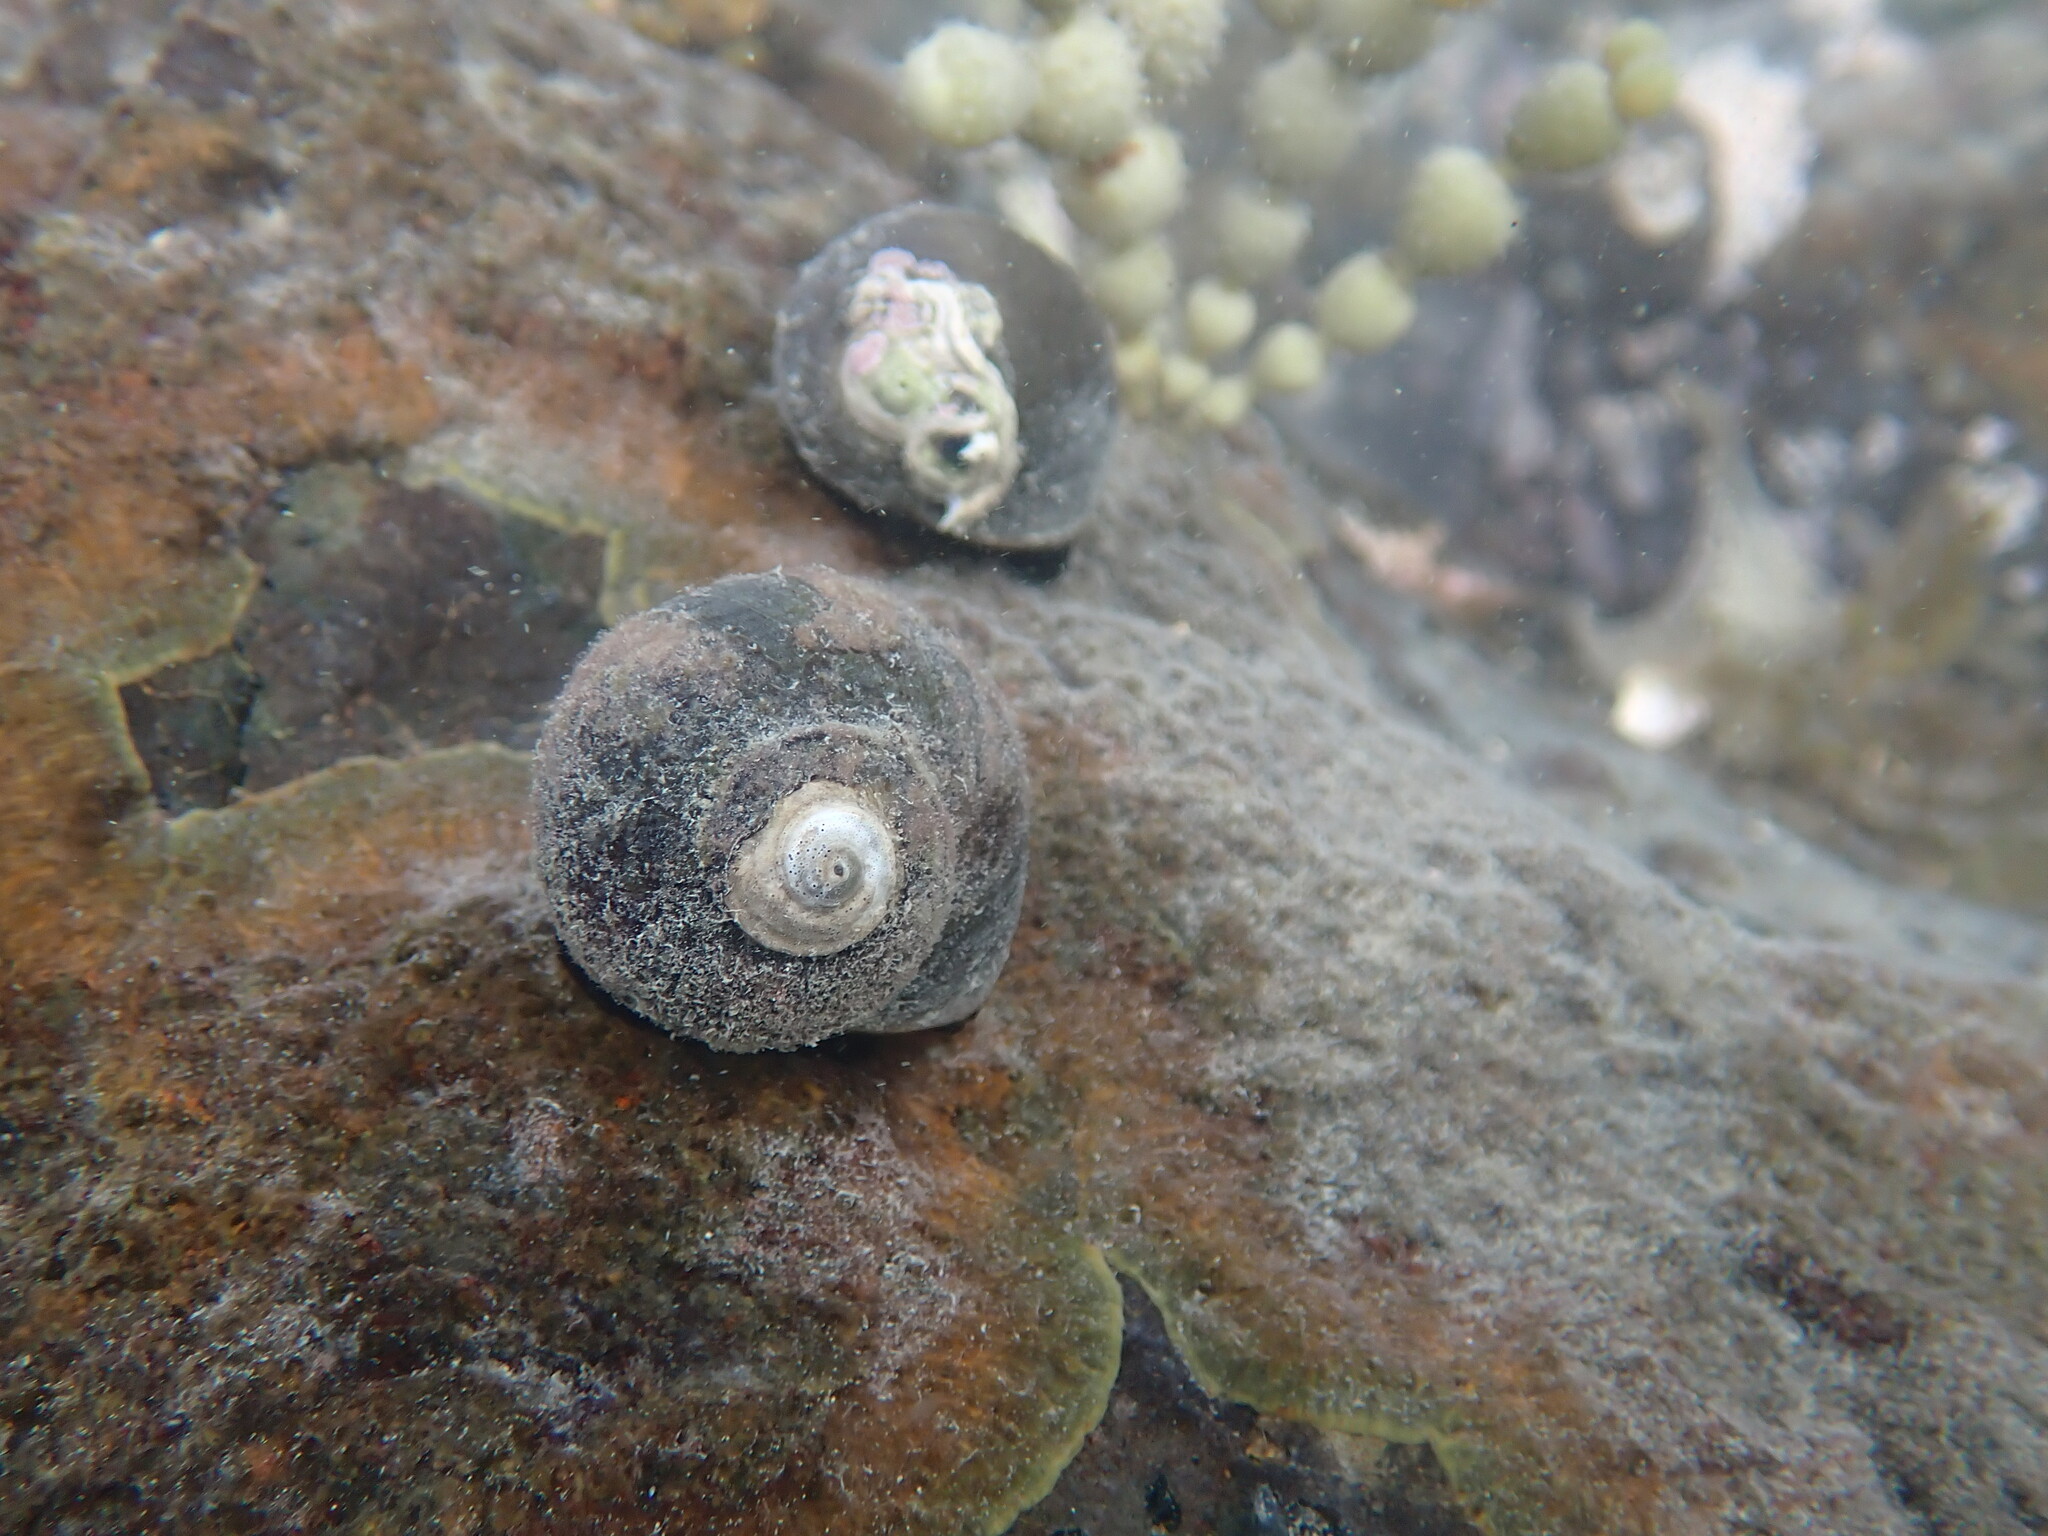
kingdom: Animalia
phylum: Mollusca
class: Gastropoda
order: Trochida
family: Turbinidae
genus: Lunella
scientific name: Lunella smaragda
